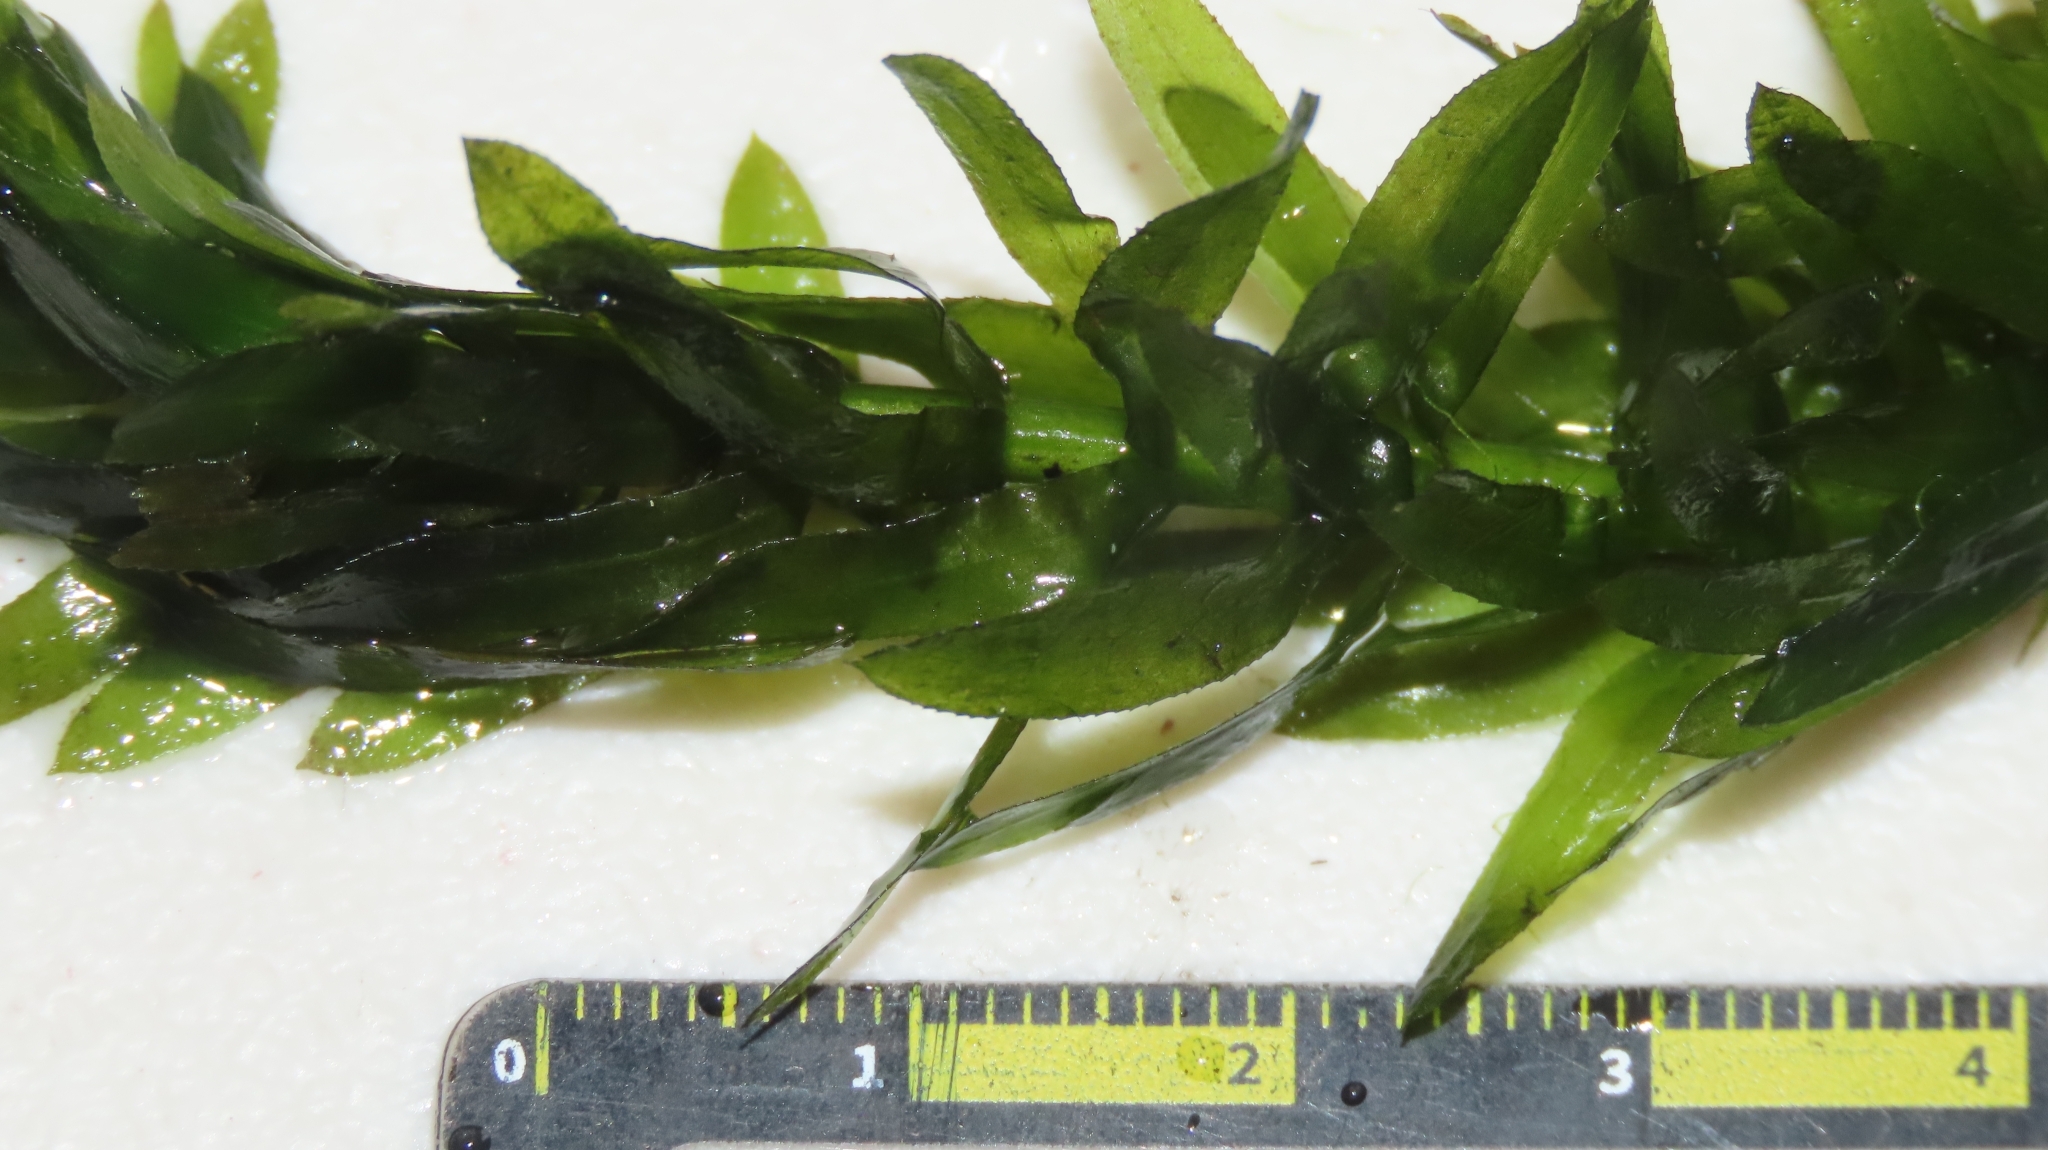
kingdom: Plantae
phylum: Tracheophyta
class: Liliopsida
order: Alismatales
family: Hydrocharitaceae
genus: Elodea
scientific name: Elodea densa
